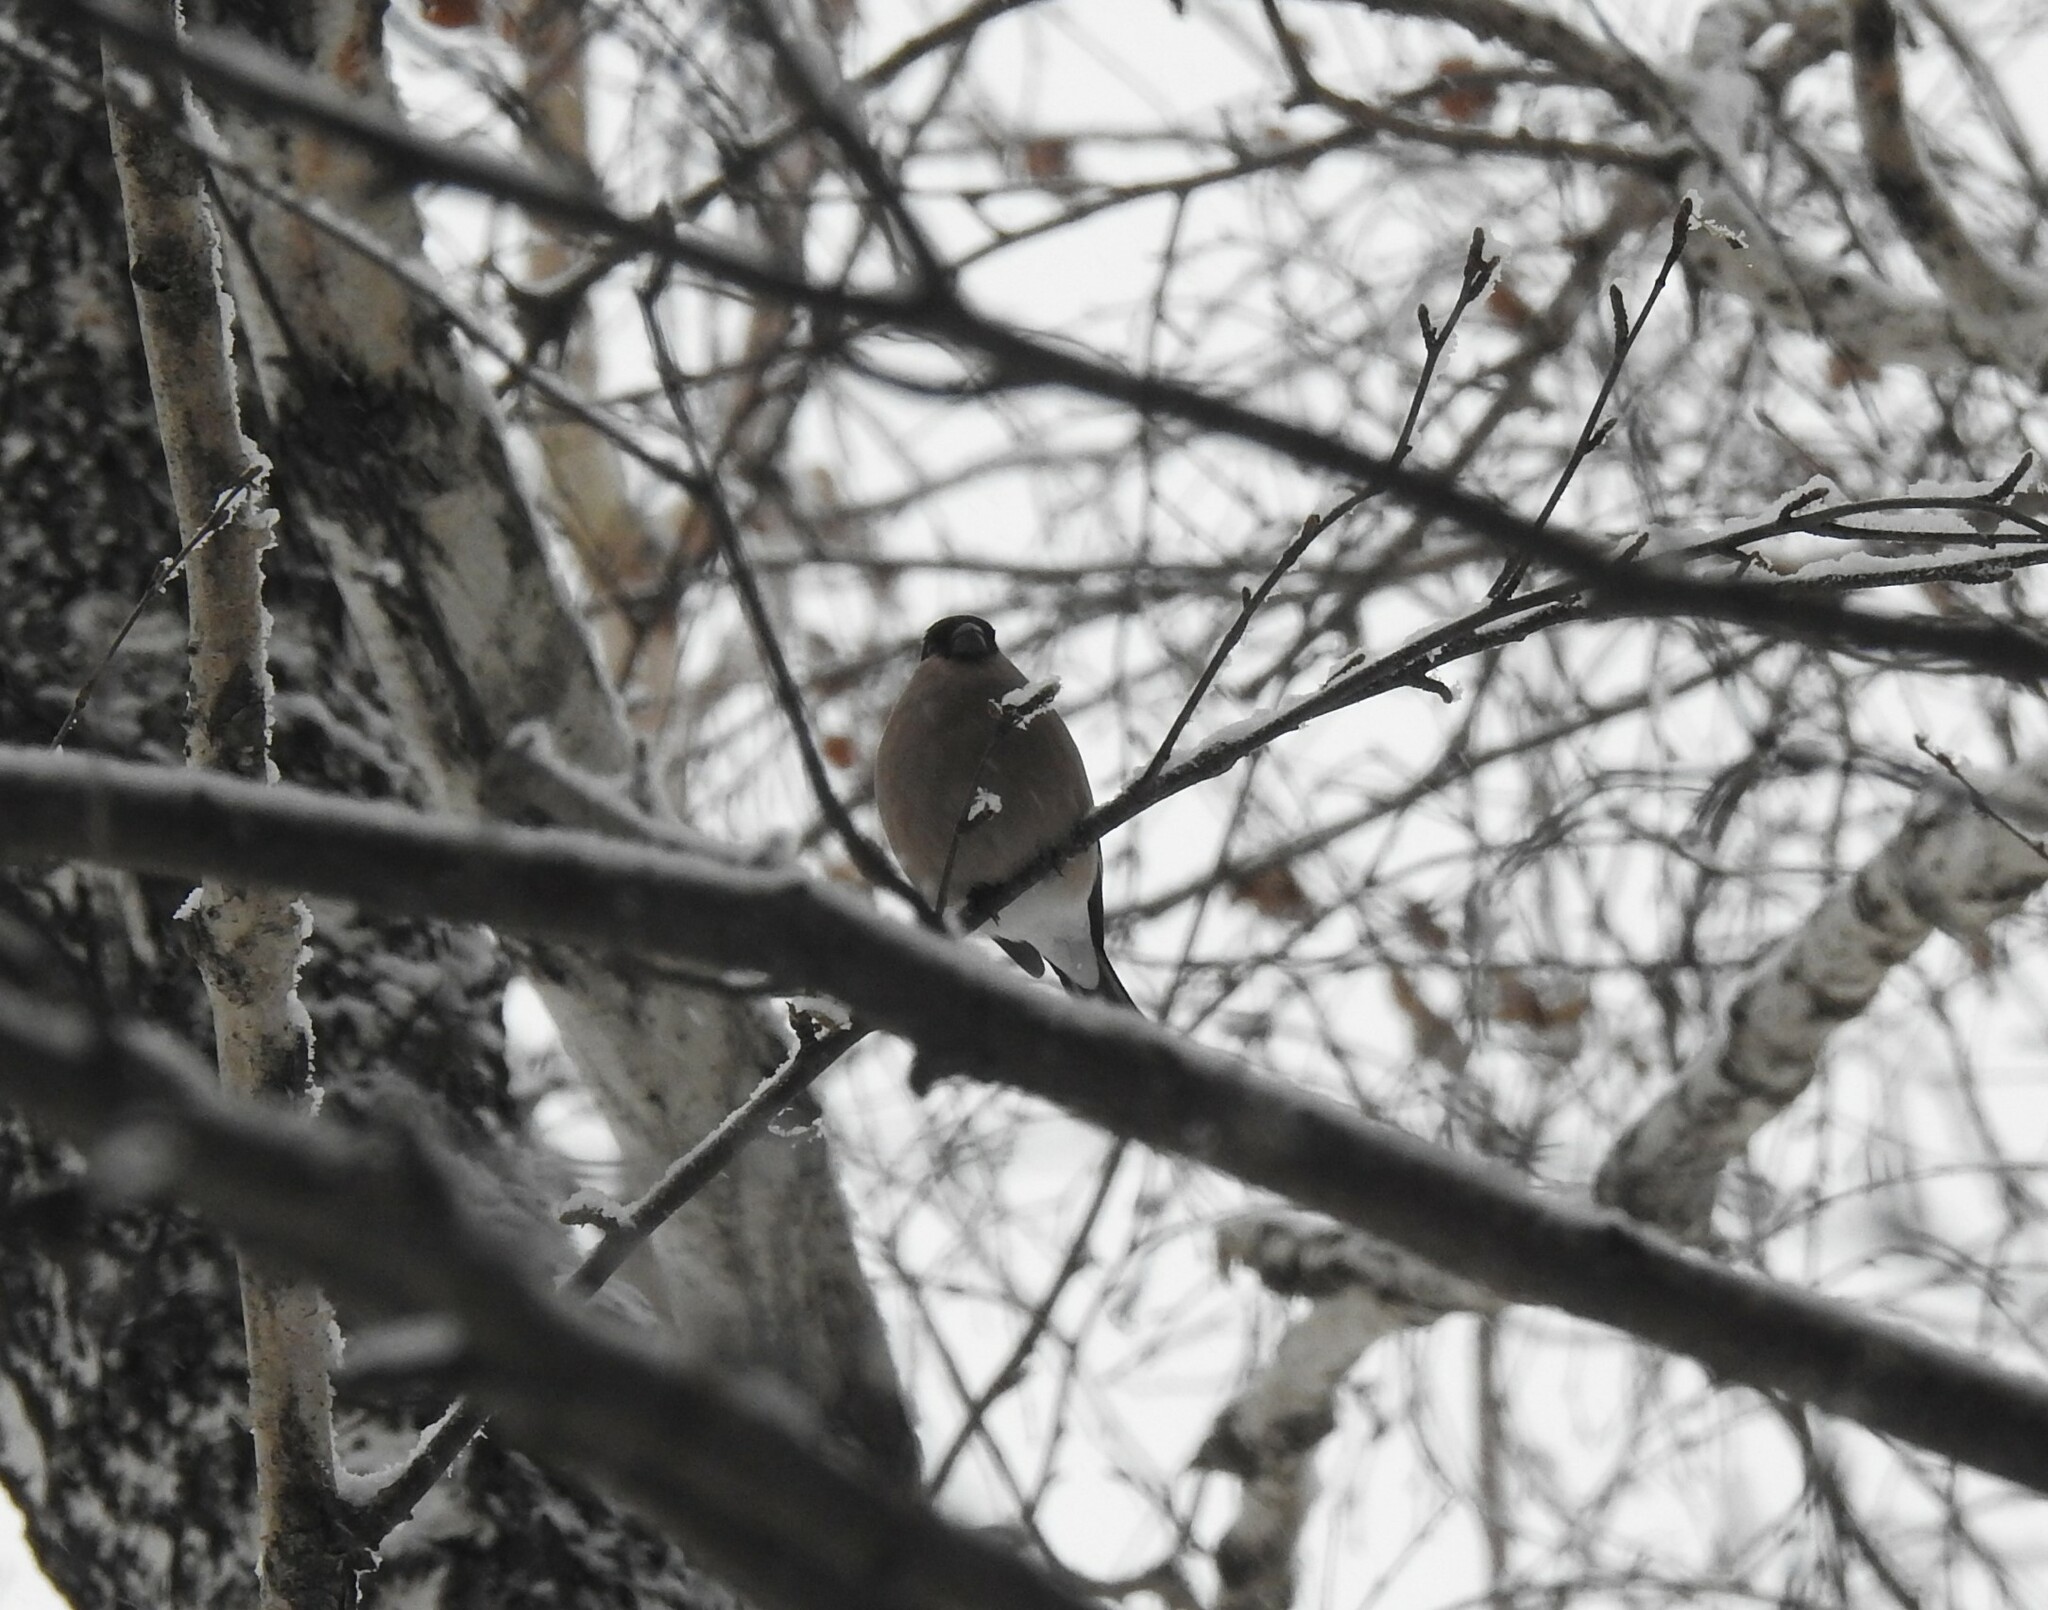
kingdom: Animalia
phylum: Chordata
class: Aves
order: Passeriformes
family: Fringillidae
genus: Pyrrhula
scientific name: Pyrrhula pyrrhula
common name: Eurasian bullfinch
